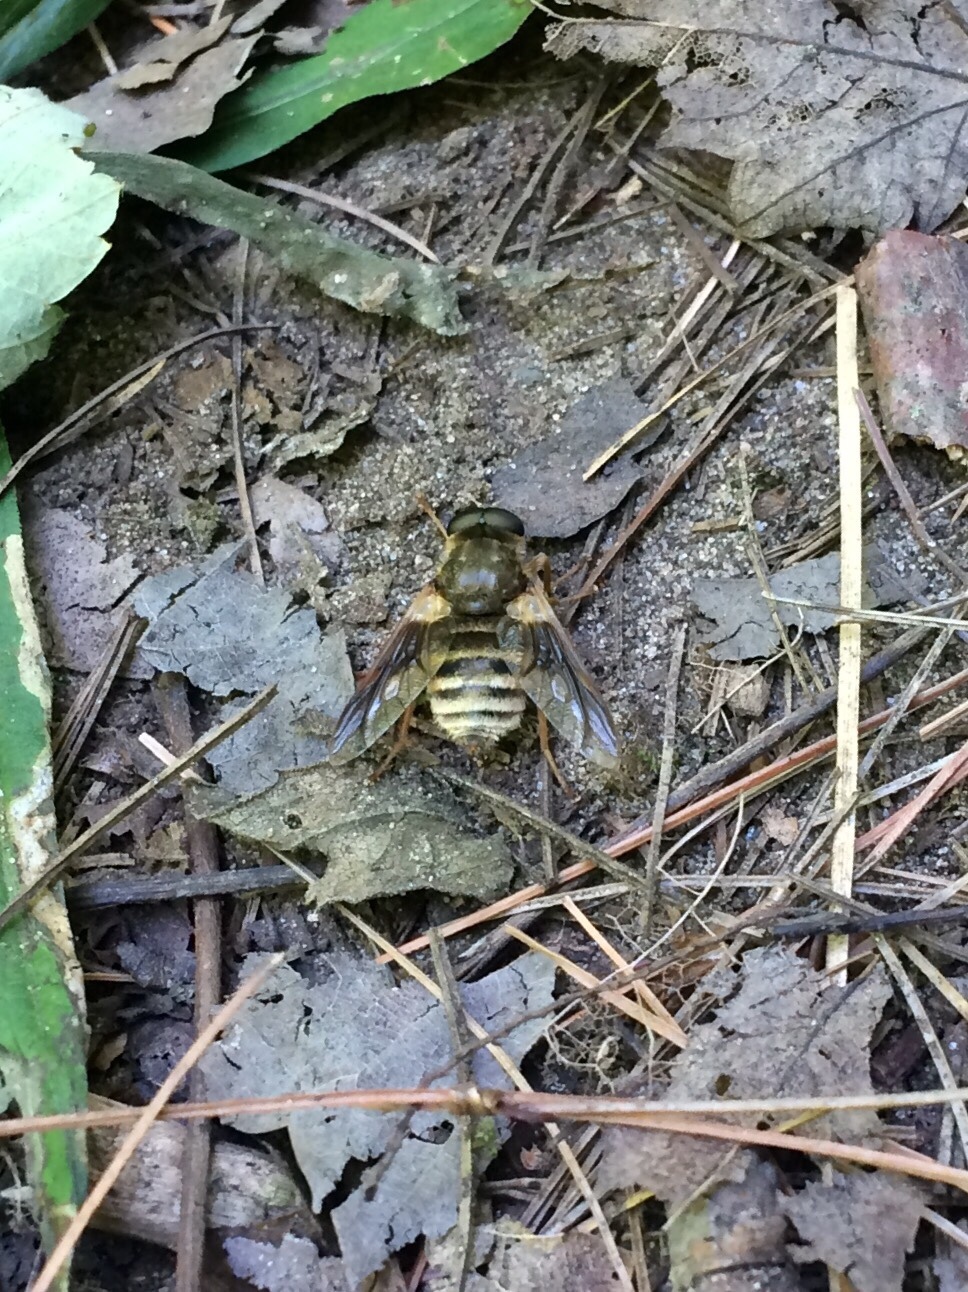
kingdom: Animalia
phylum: Arthropoda
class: Insecta
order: Diptera
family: Tabanidae
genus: Goniops
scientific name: Goniops chrysocoma
